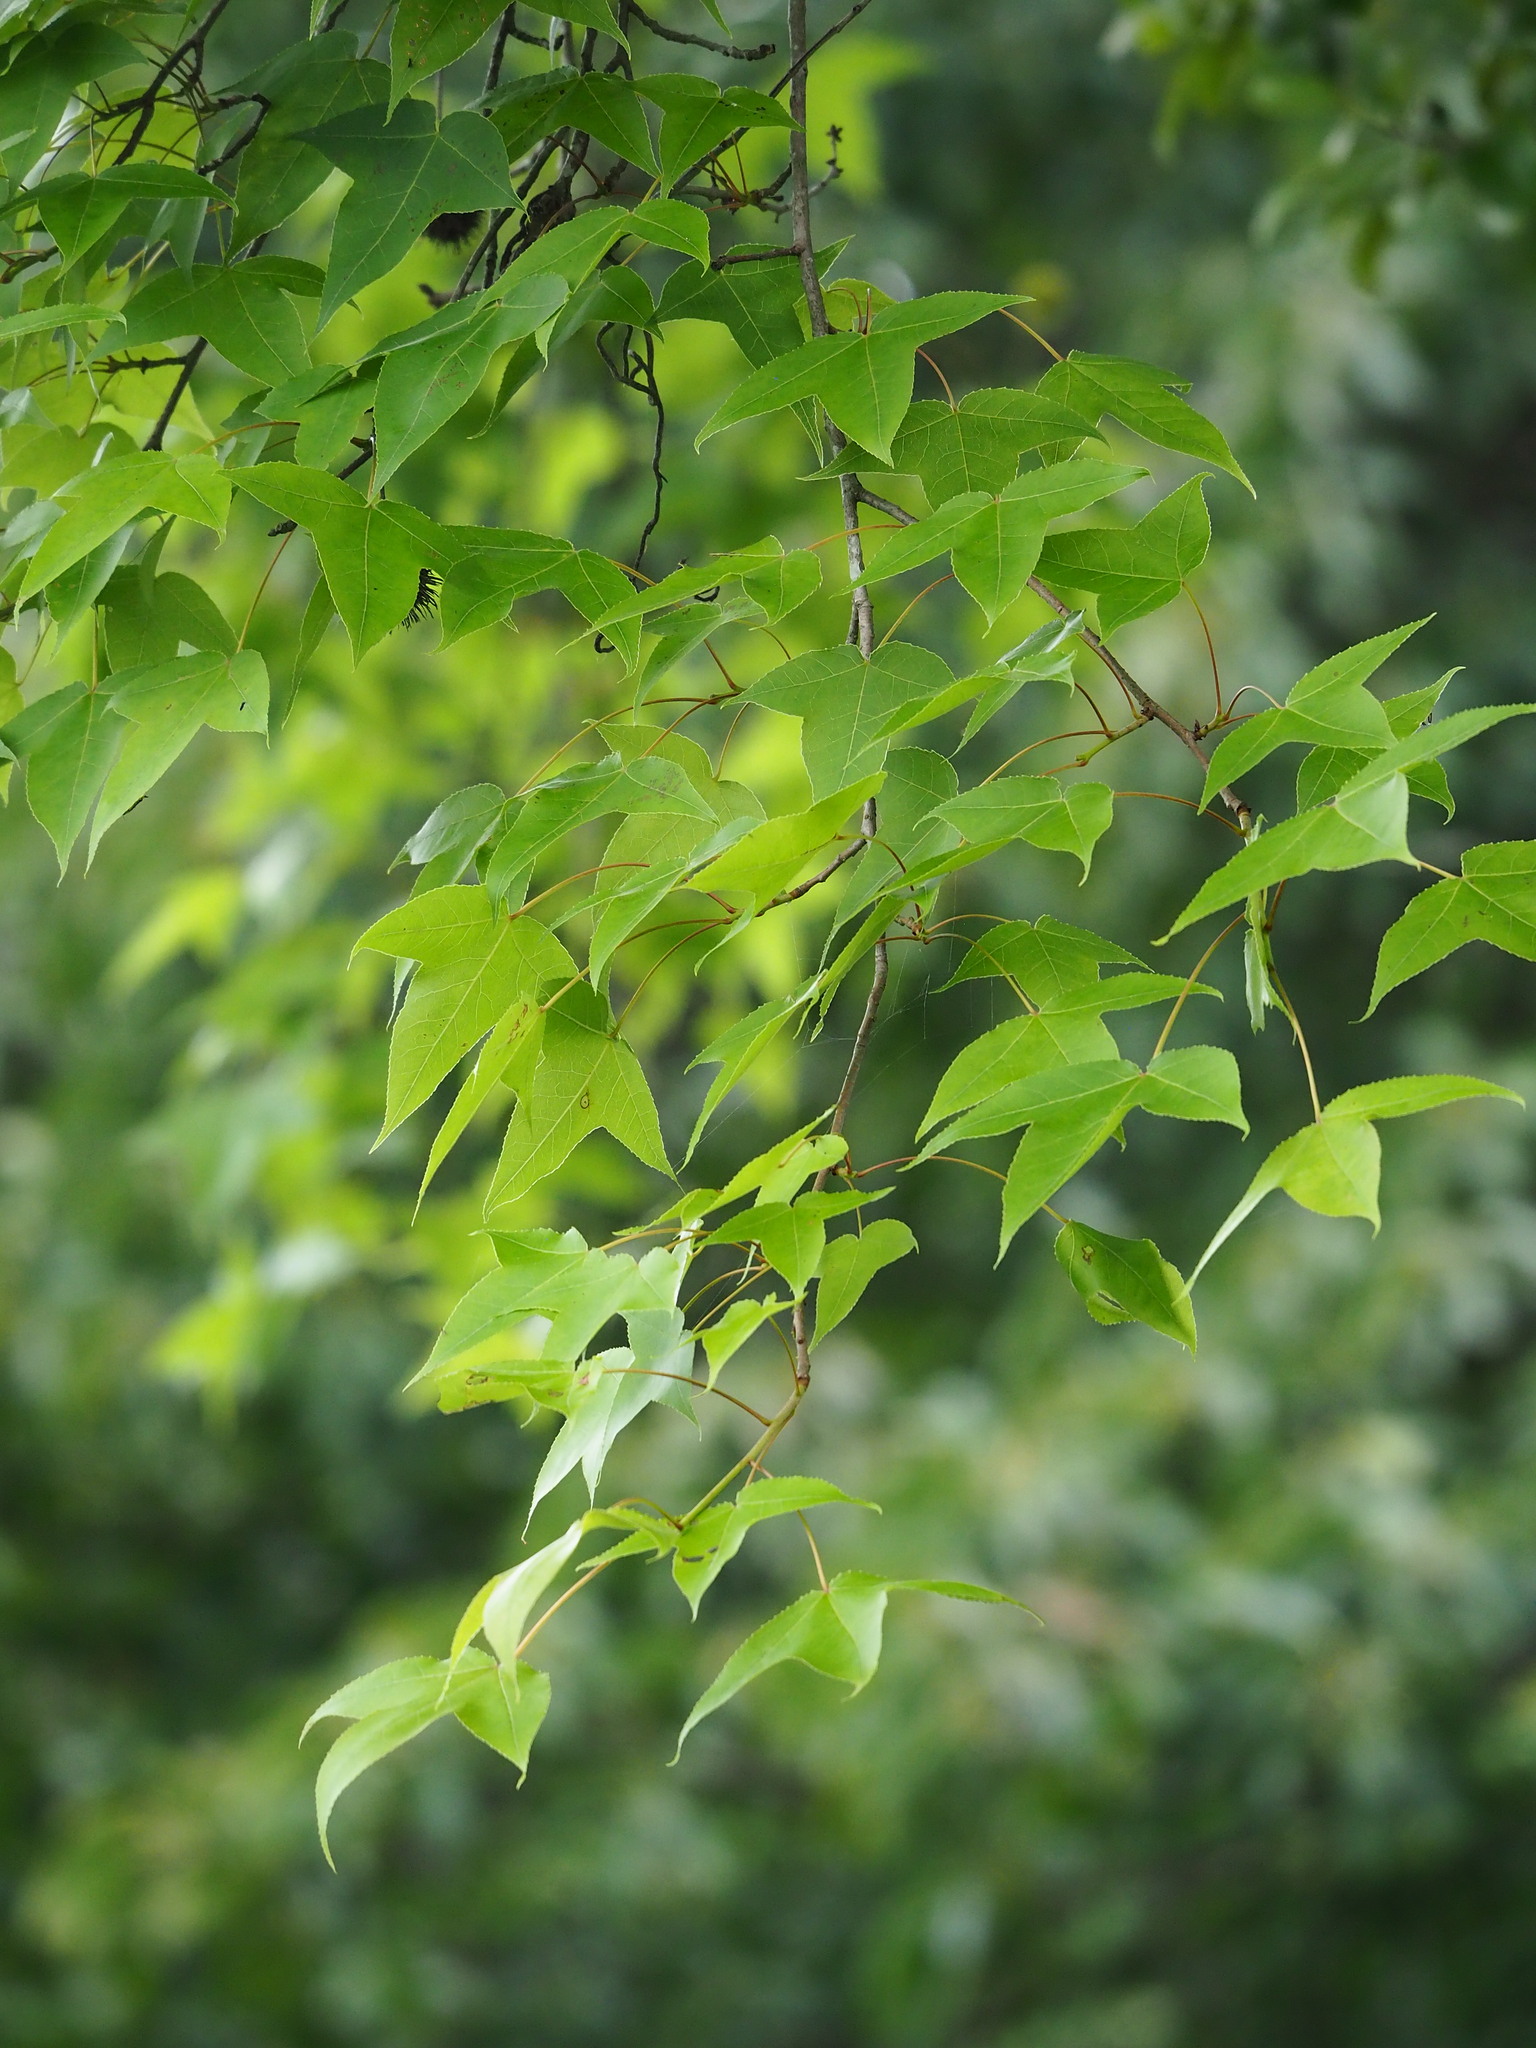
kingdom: Plantae
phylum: Tracheophyta
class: Magnoliopsida
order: Saxifragales
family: Altingiaceae
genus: Liquidambar
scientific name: Liquidambar formosana
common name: Chinese sweet gum
